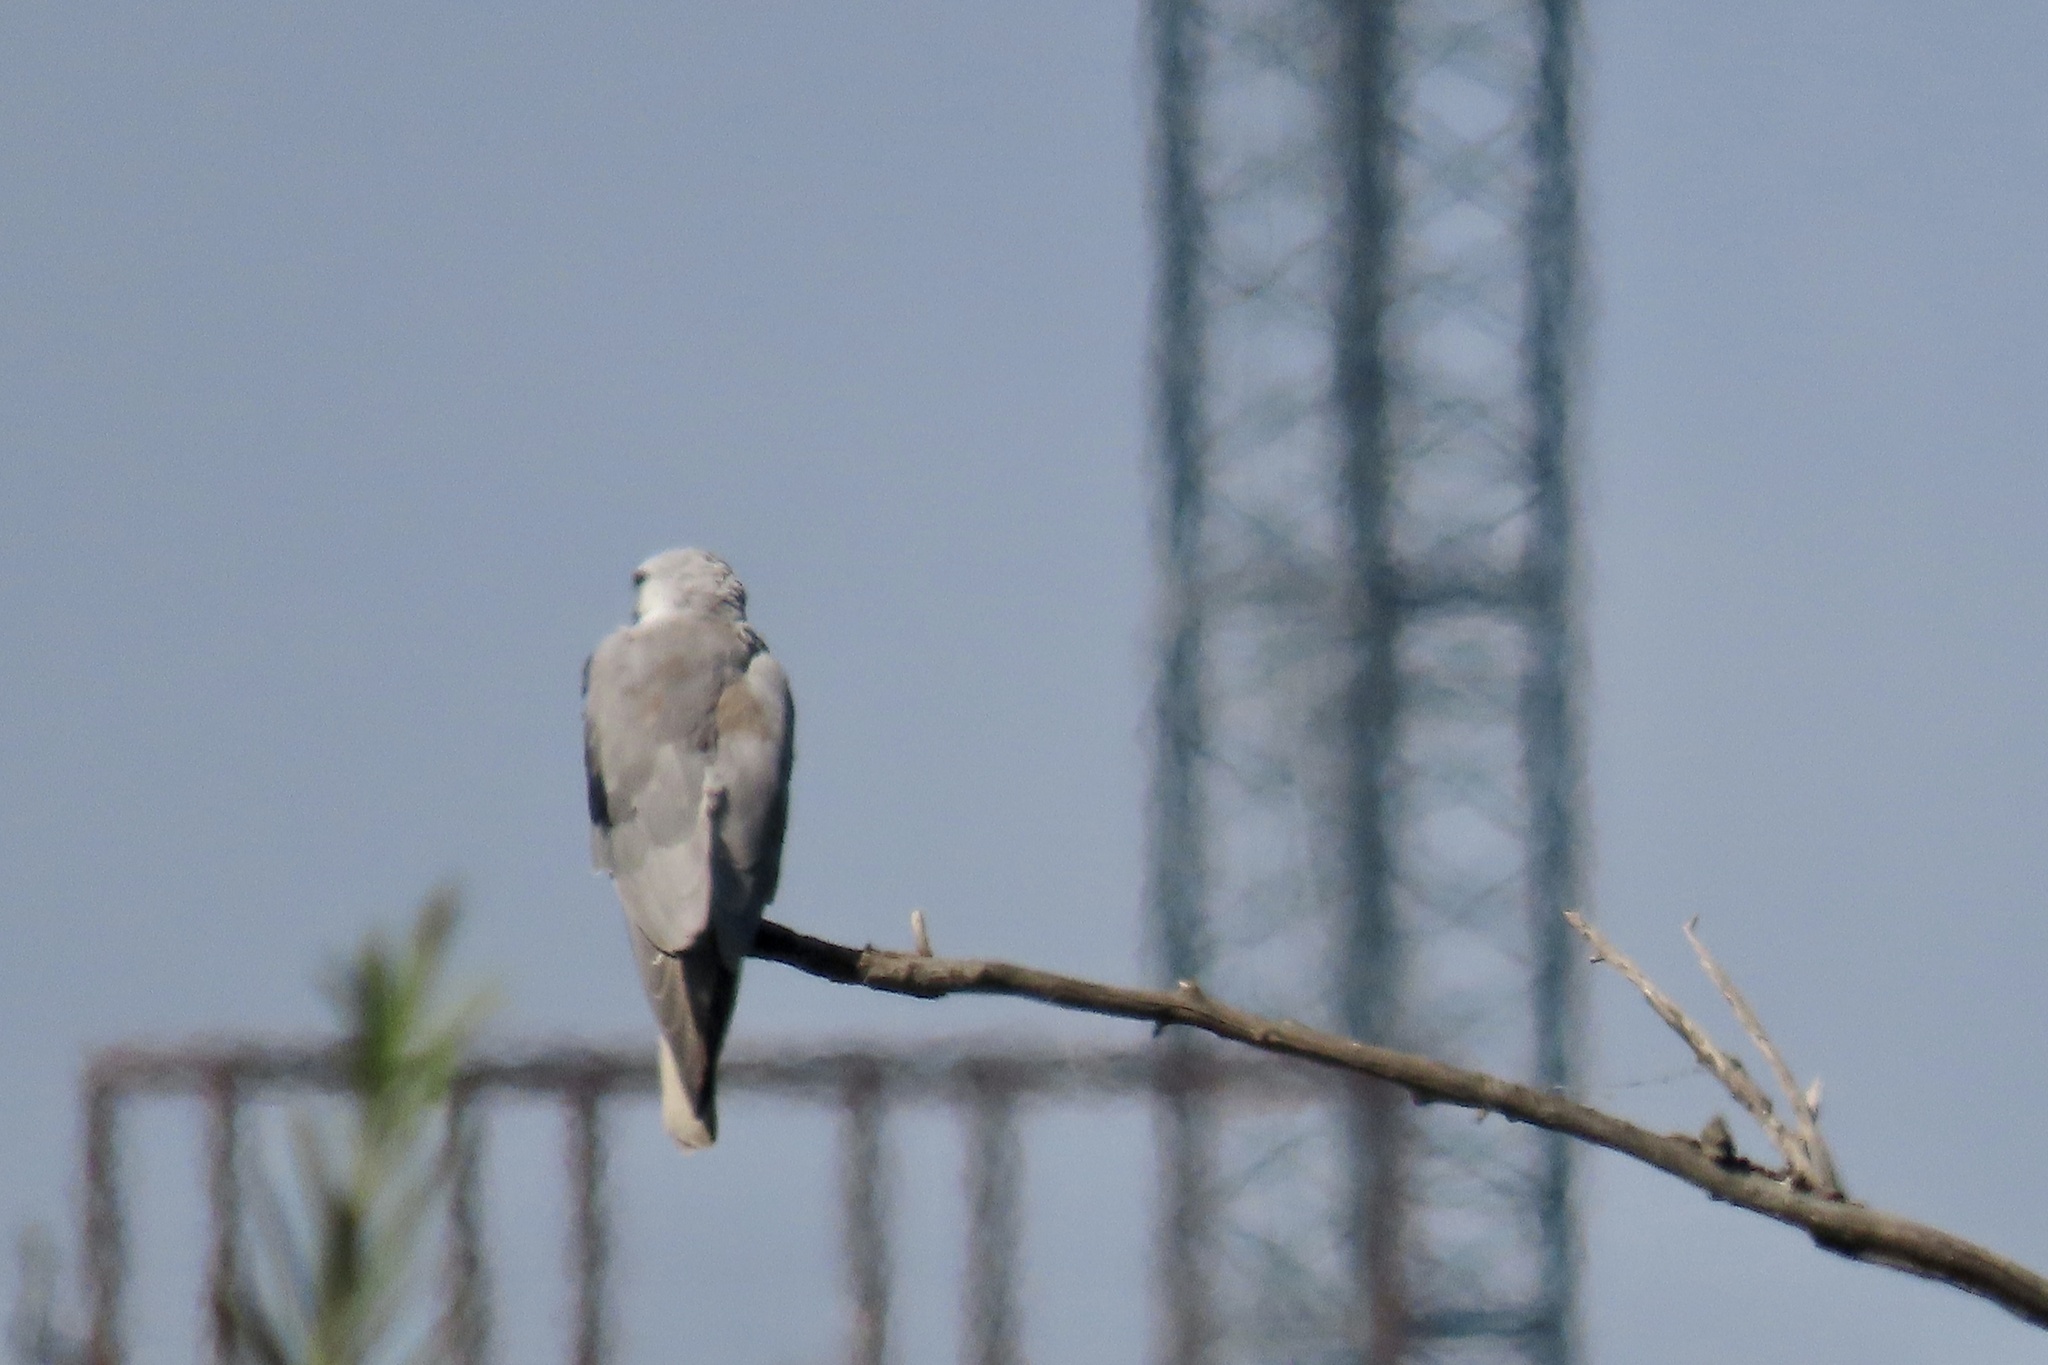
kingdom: Animalia
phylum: Chordata
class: Aves
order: Accipitriformes
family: Accipitridae
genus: Elanus
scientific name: Elanus leucurus
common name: White-tailed kite
